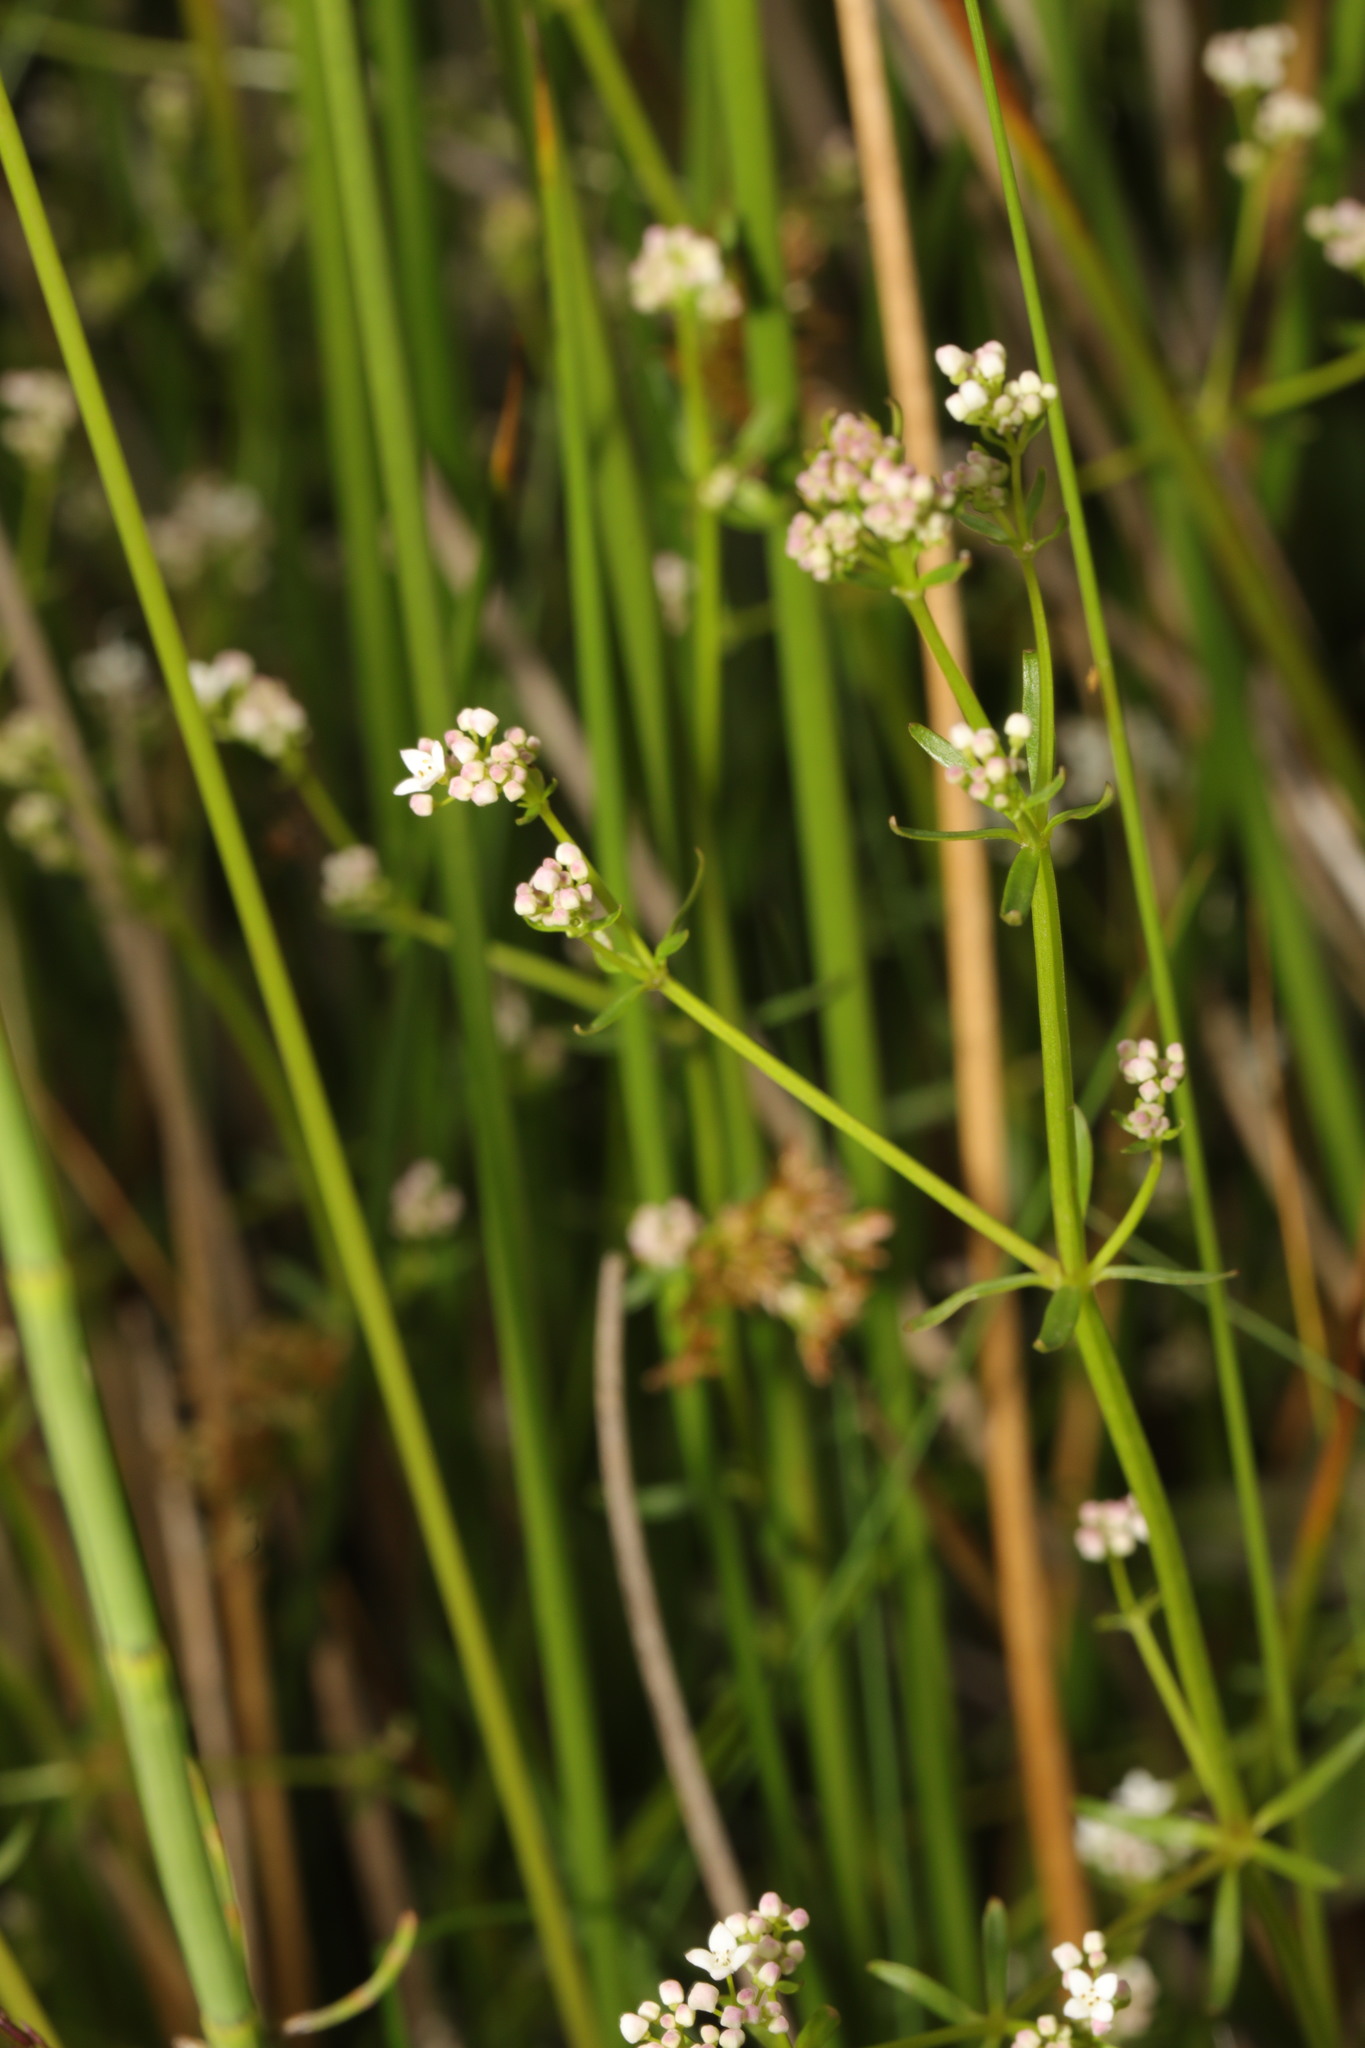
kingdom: Plantae
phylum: Tracheophyta
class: Magnoliopsida
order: Gentianales
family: Rubiaceae
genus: Galium
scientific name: Galium palustre
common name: Common marsh-bedstraw
